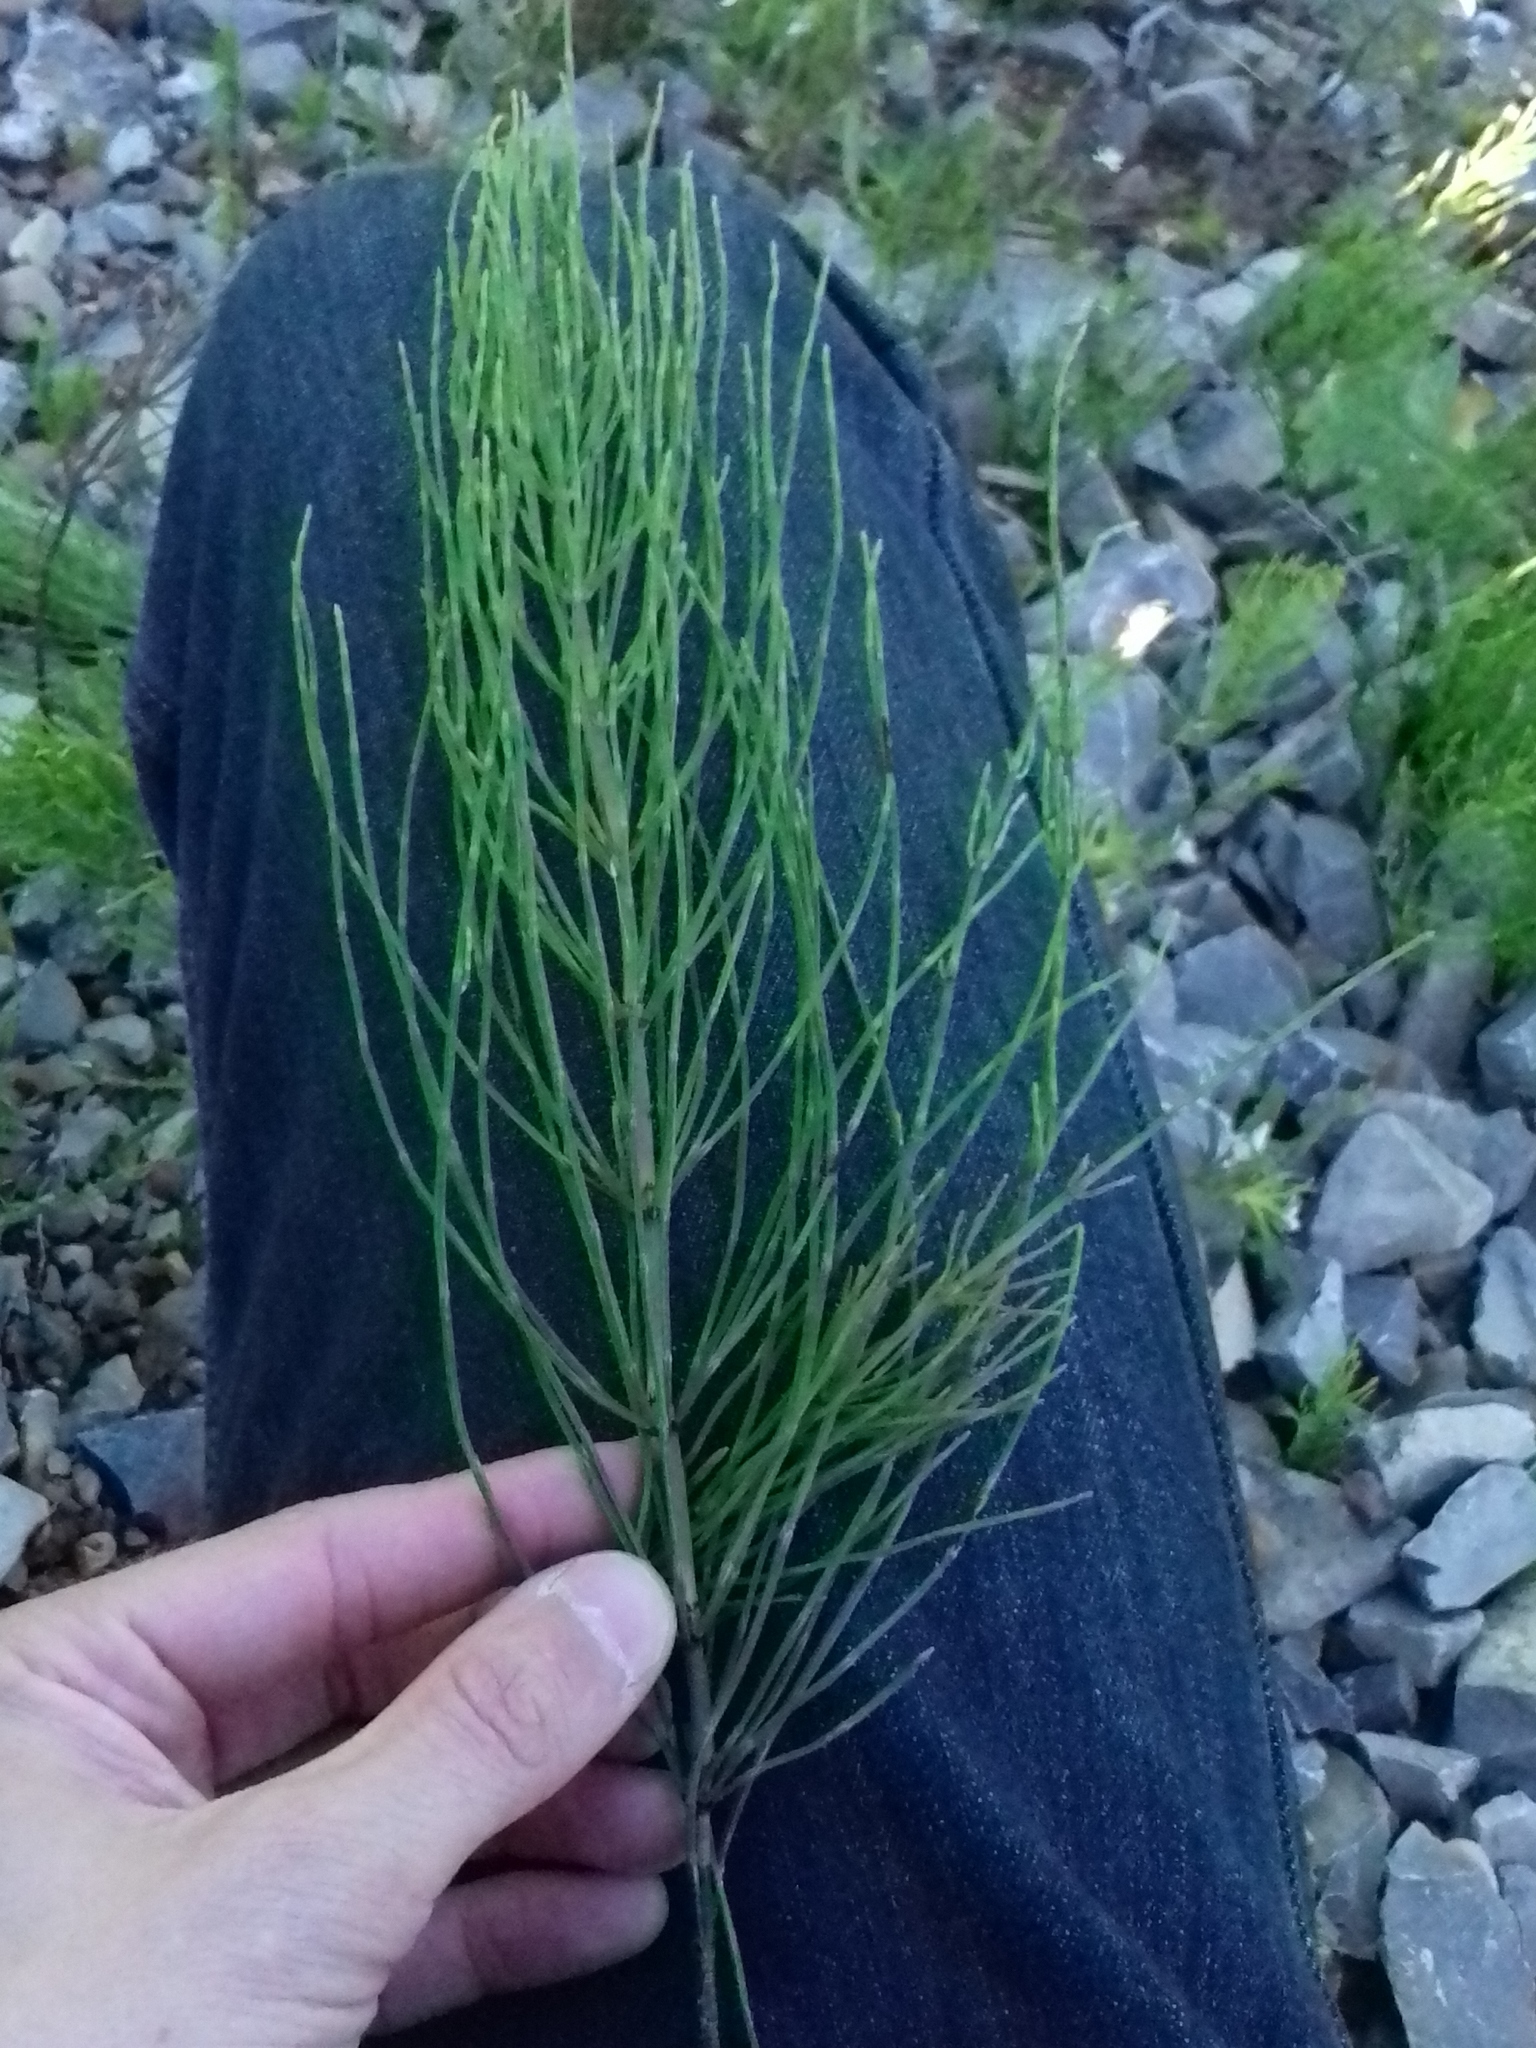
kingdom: Plantae
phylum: Tracheophyta
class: Polypodiopsida
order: Equisetales
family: Equisetaceae
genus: Equisetum
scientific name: Equisetum arvense
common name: Field horsetail
